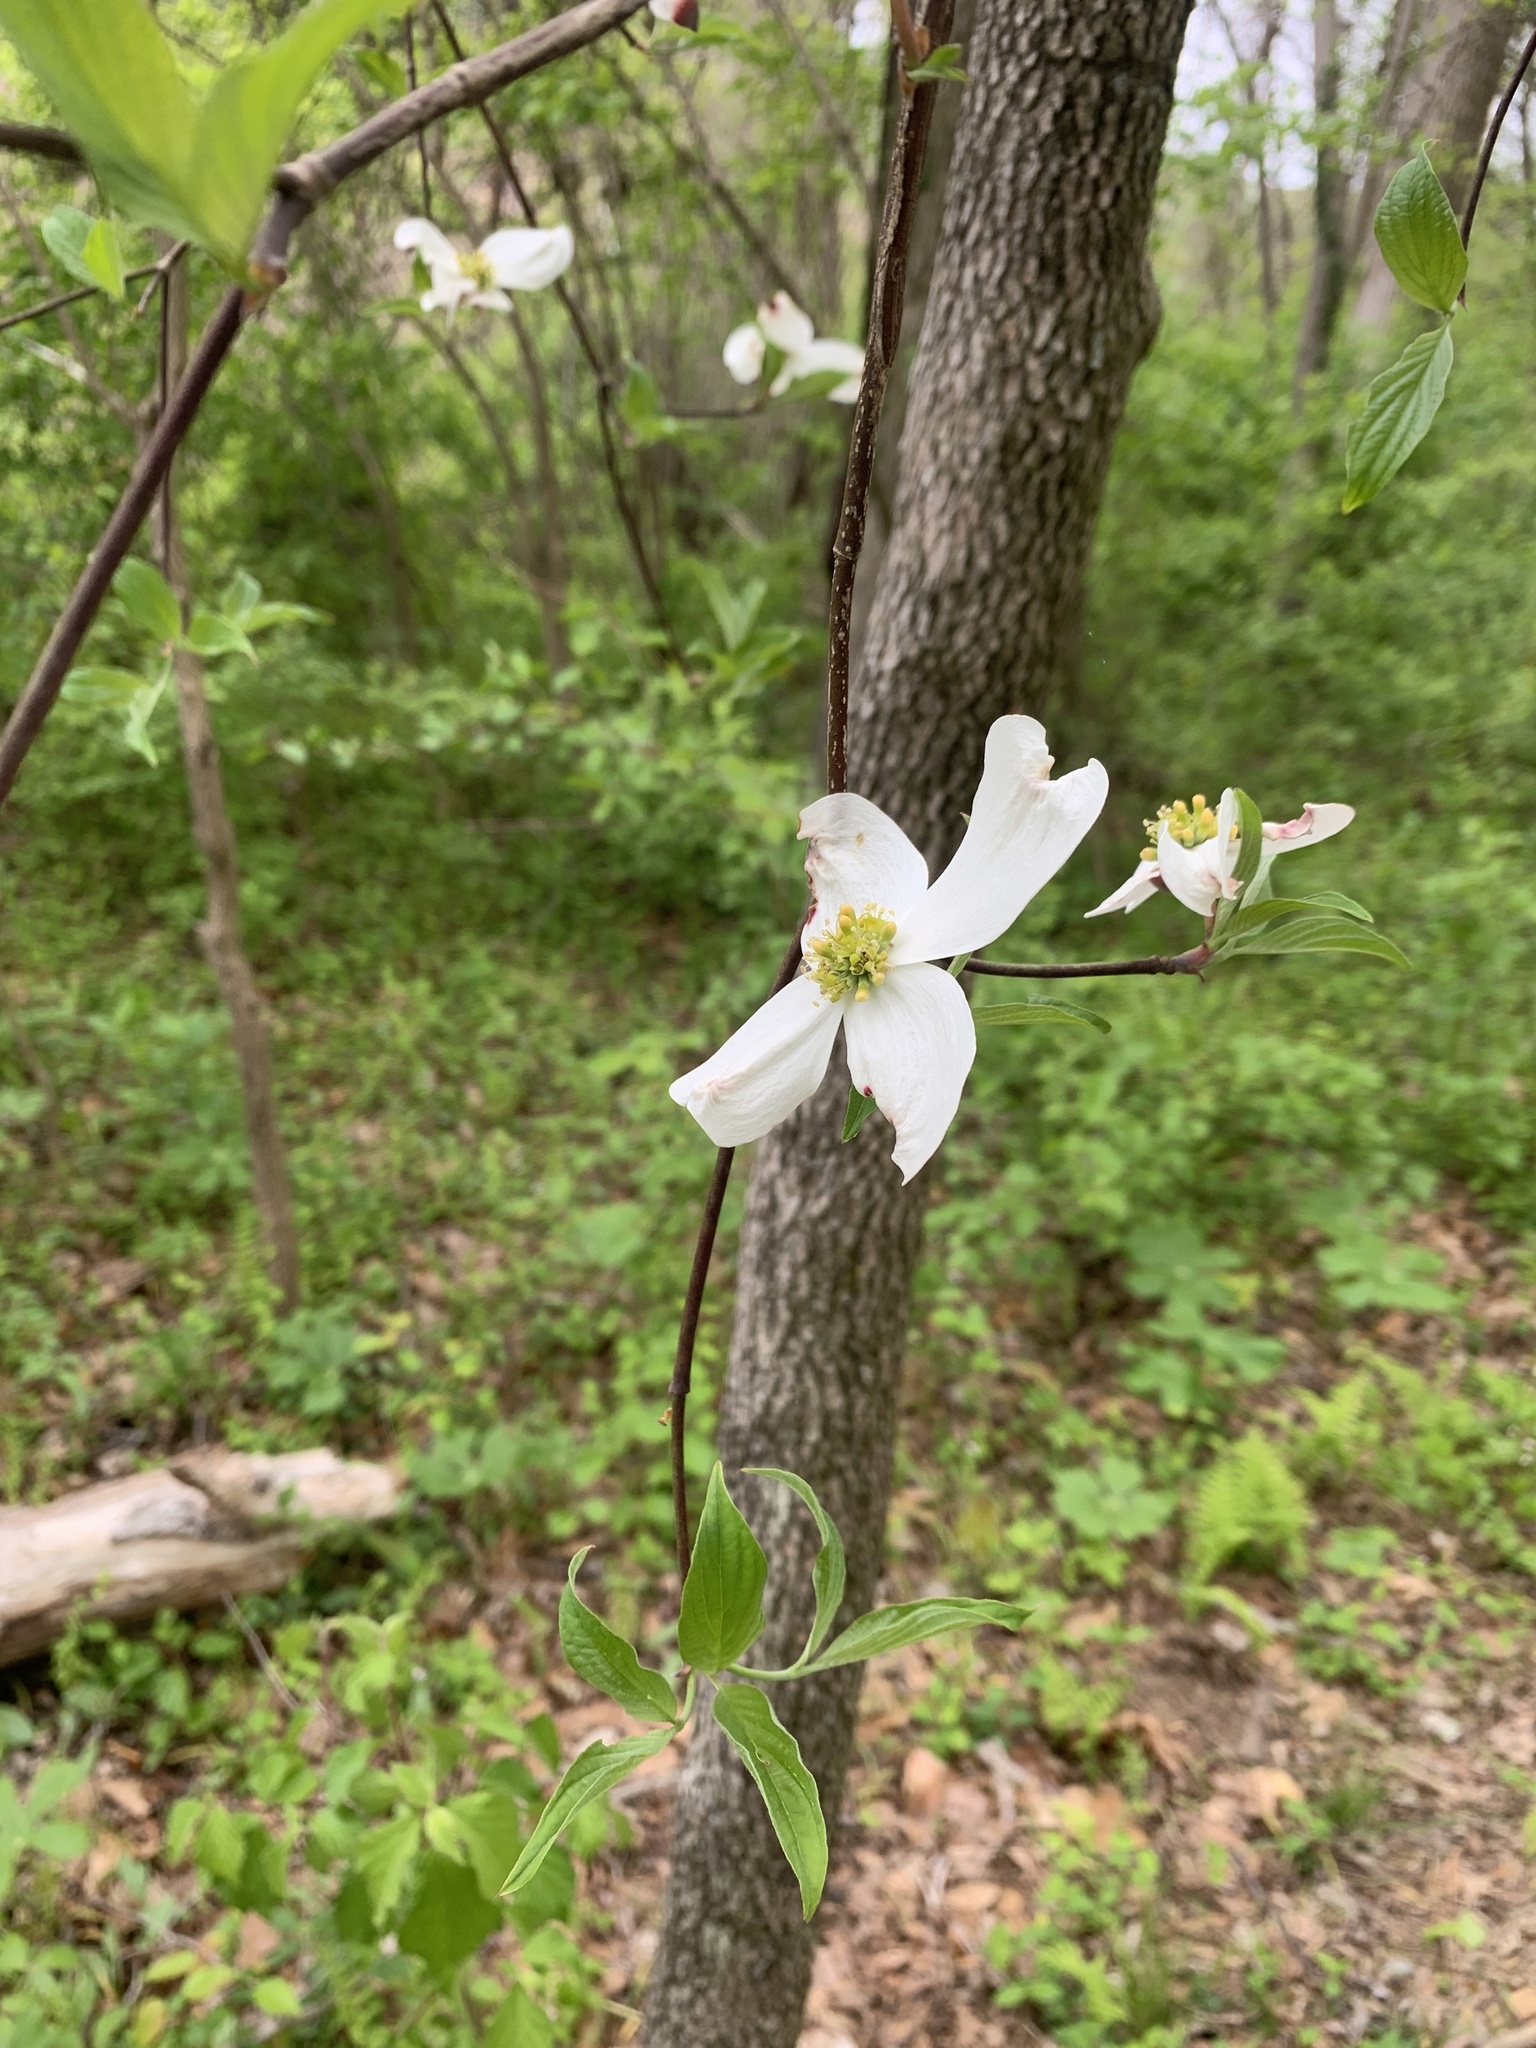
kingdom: Plantae
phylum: Tracheophyta
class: Magnoliopsida
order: Cornales
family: Cornaceae
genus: Cornus
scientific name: Cornus florida
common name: Flowering dogwood
